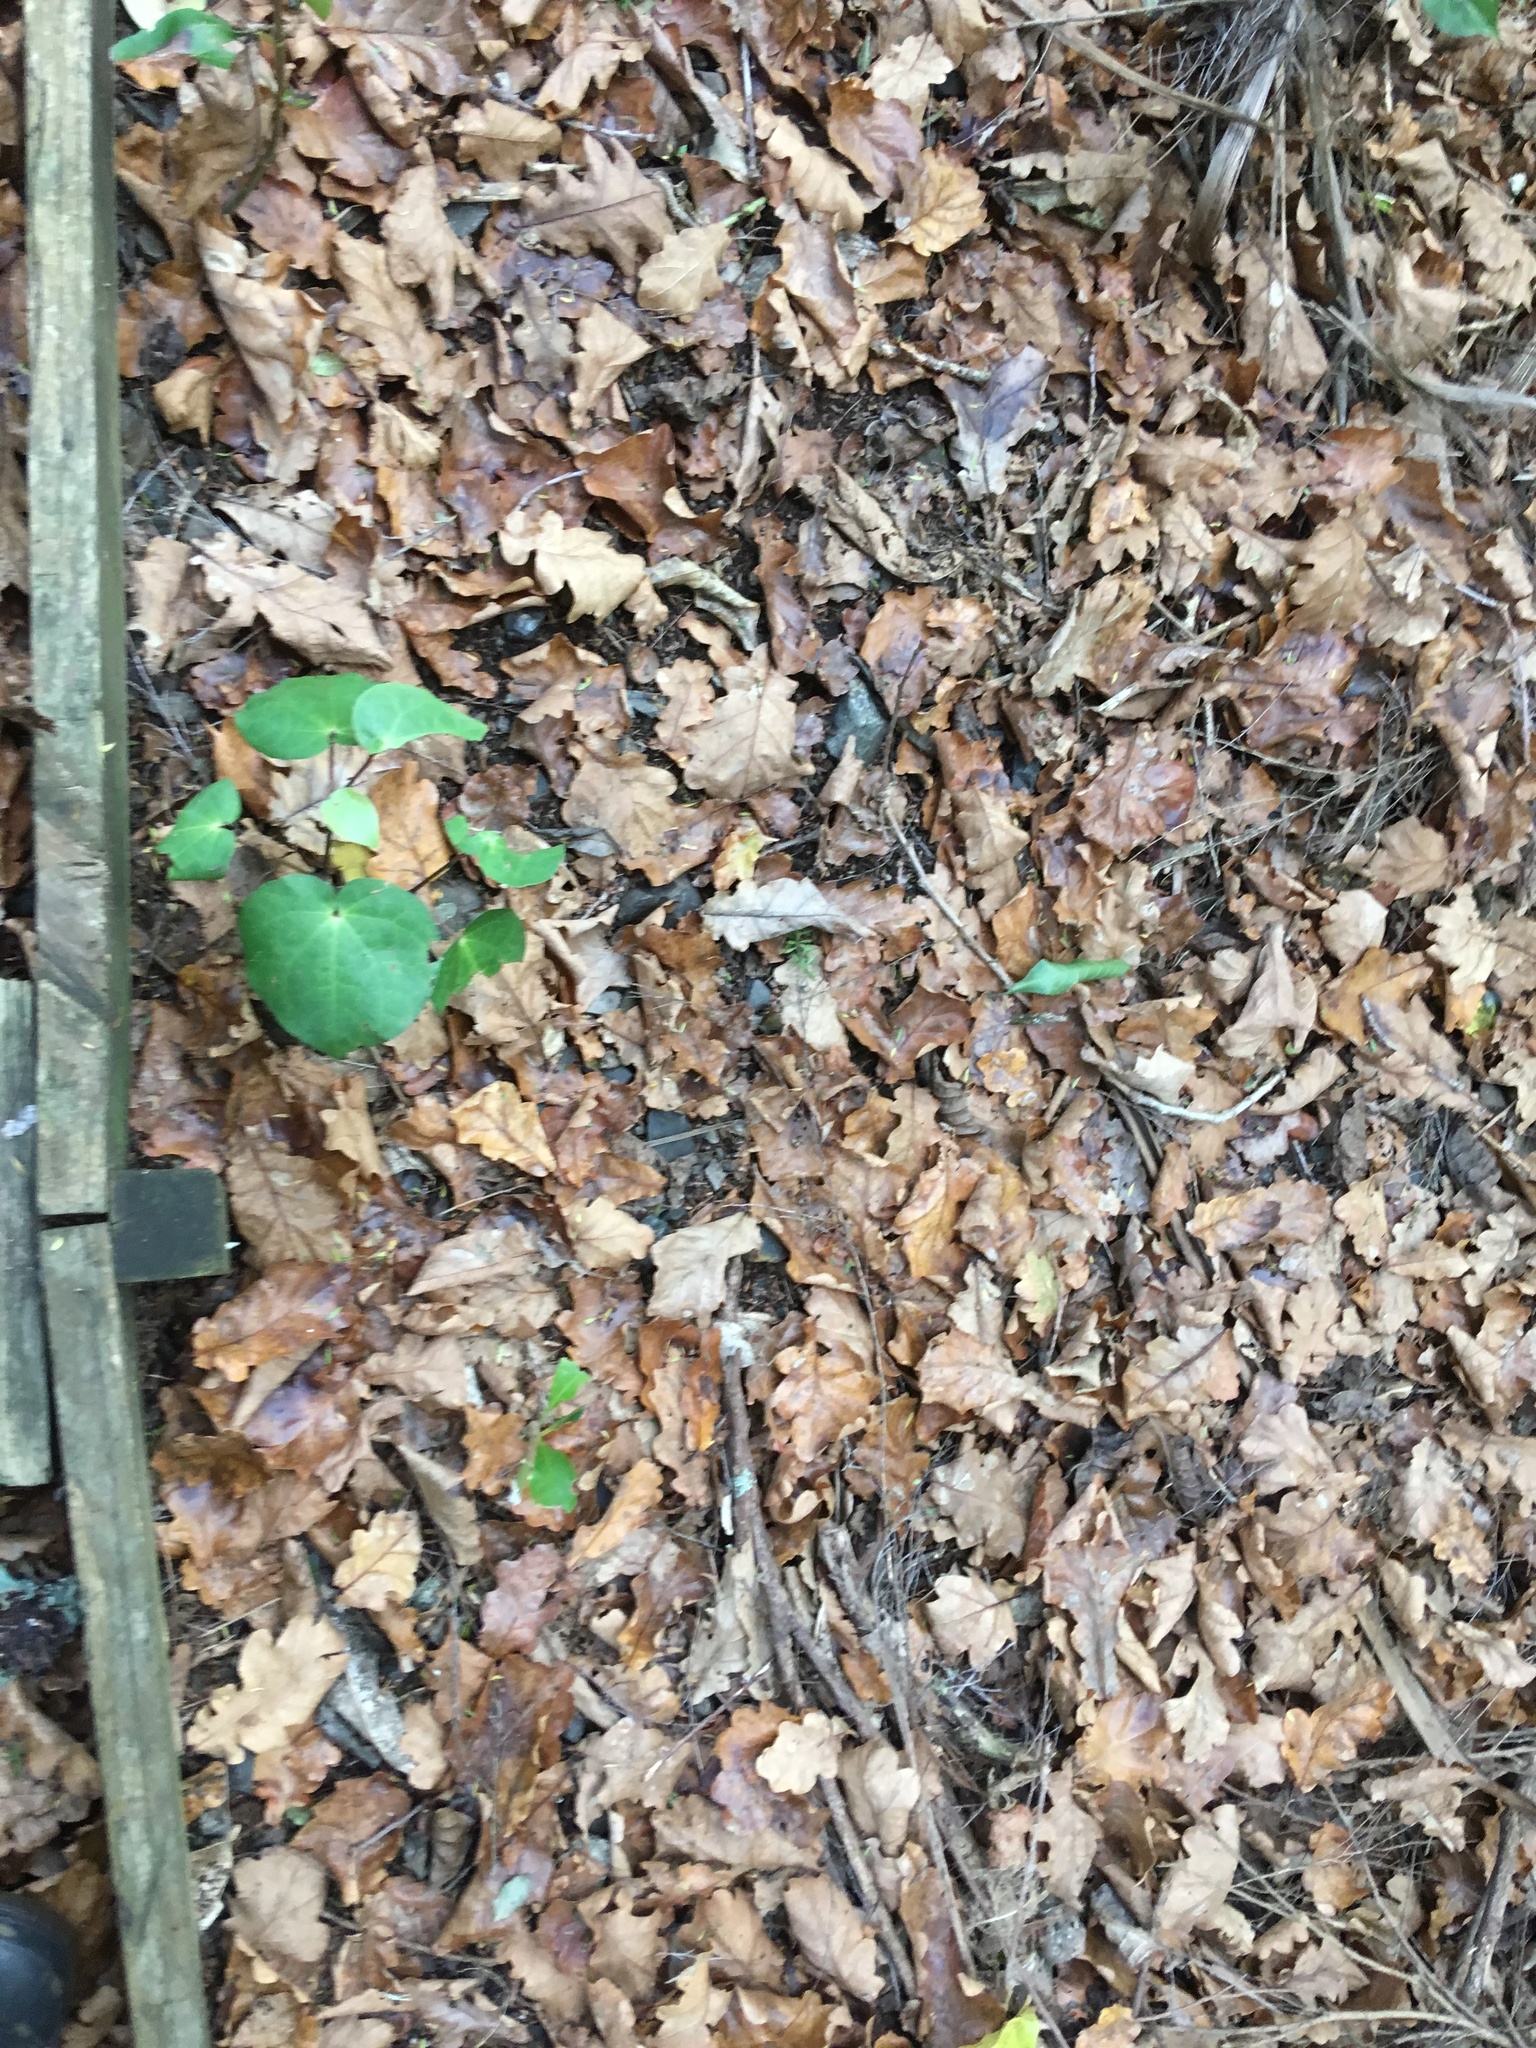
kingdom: Plantae
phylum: Tracheophyta
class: Magnoliopsida
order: Piperales
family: Piperaceae
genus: Macropiper
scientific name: Macropiper excelsum
